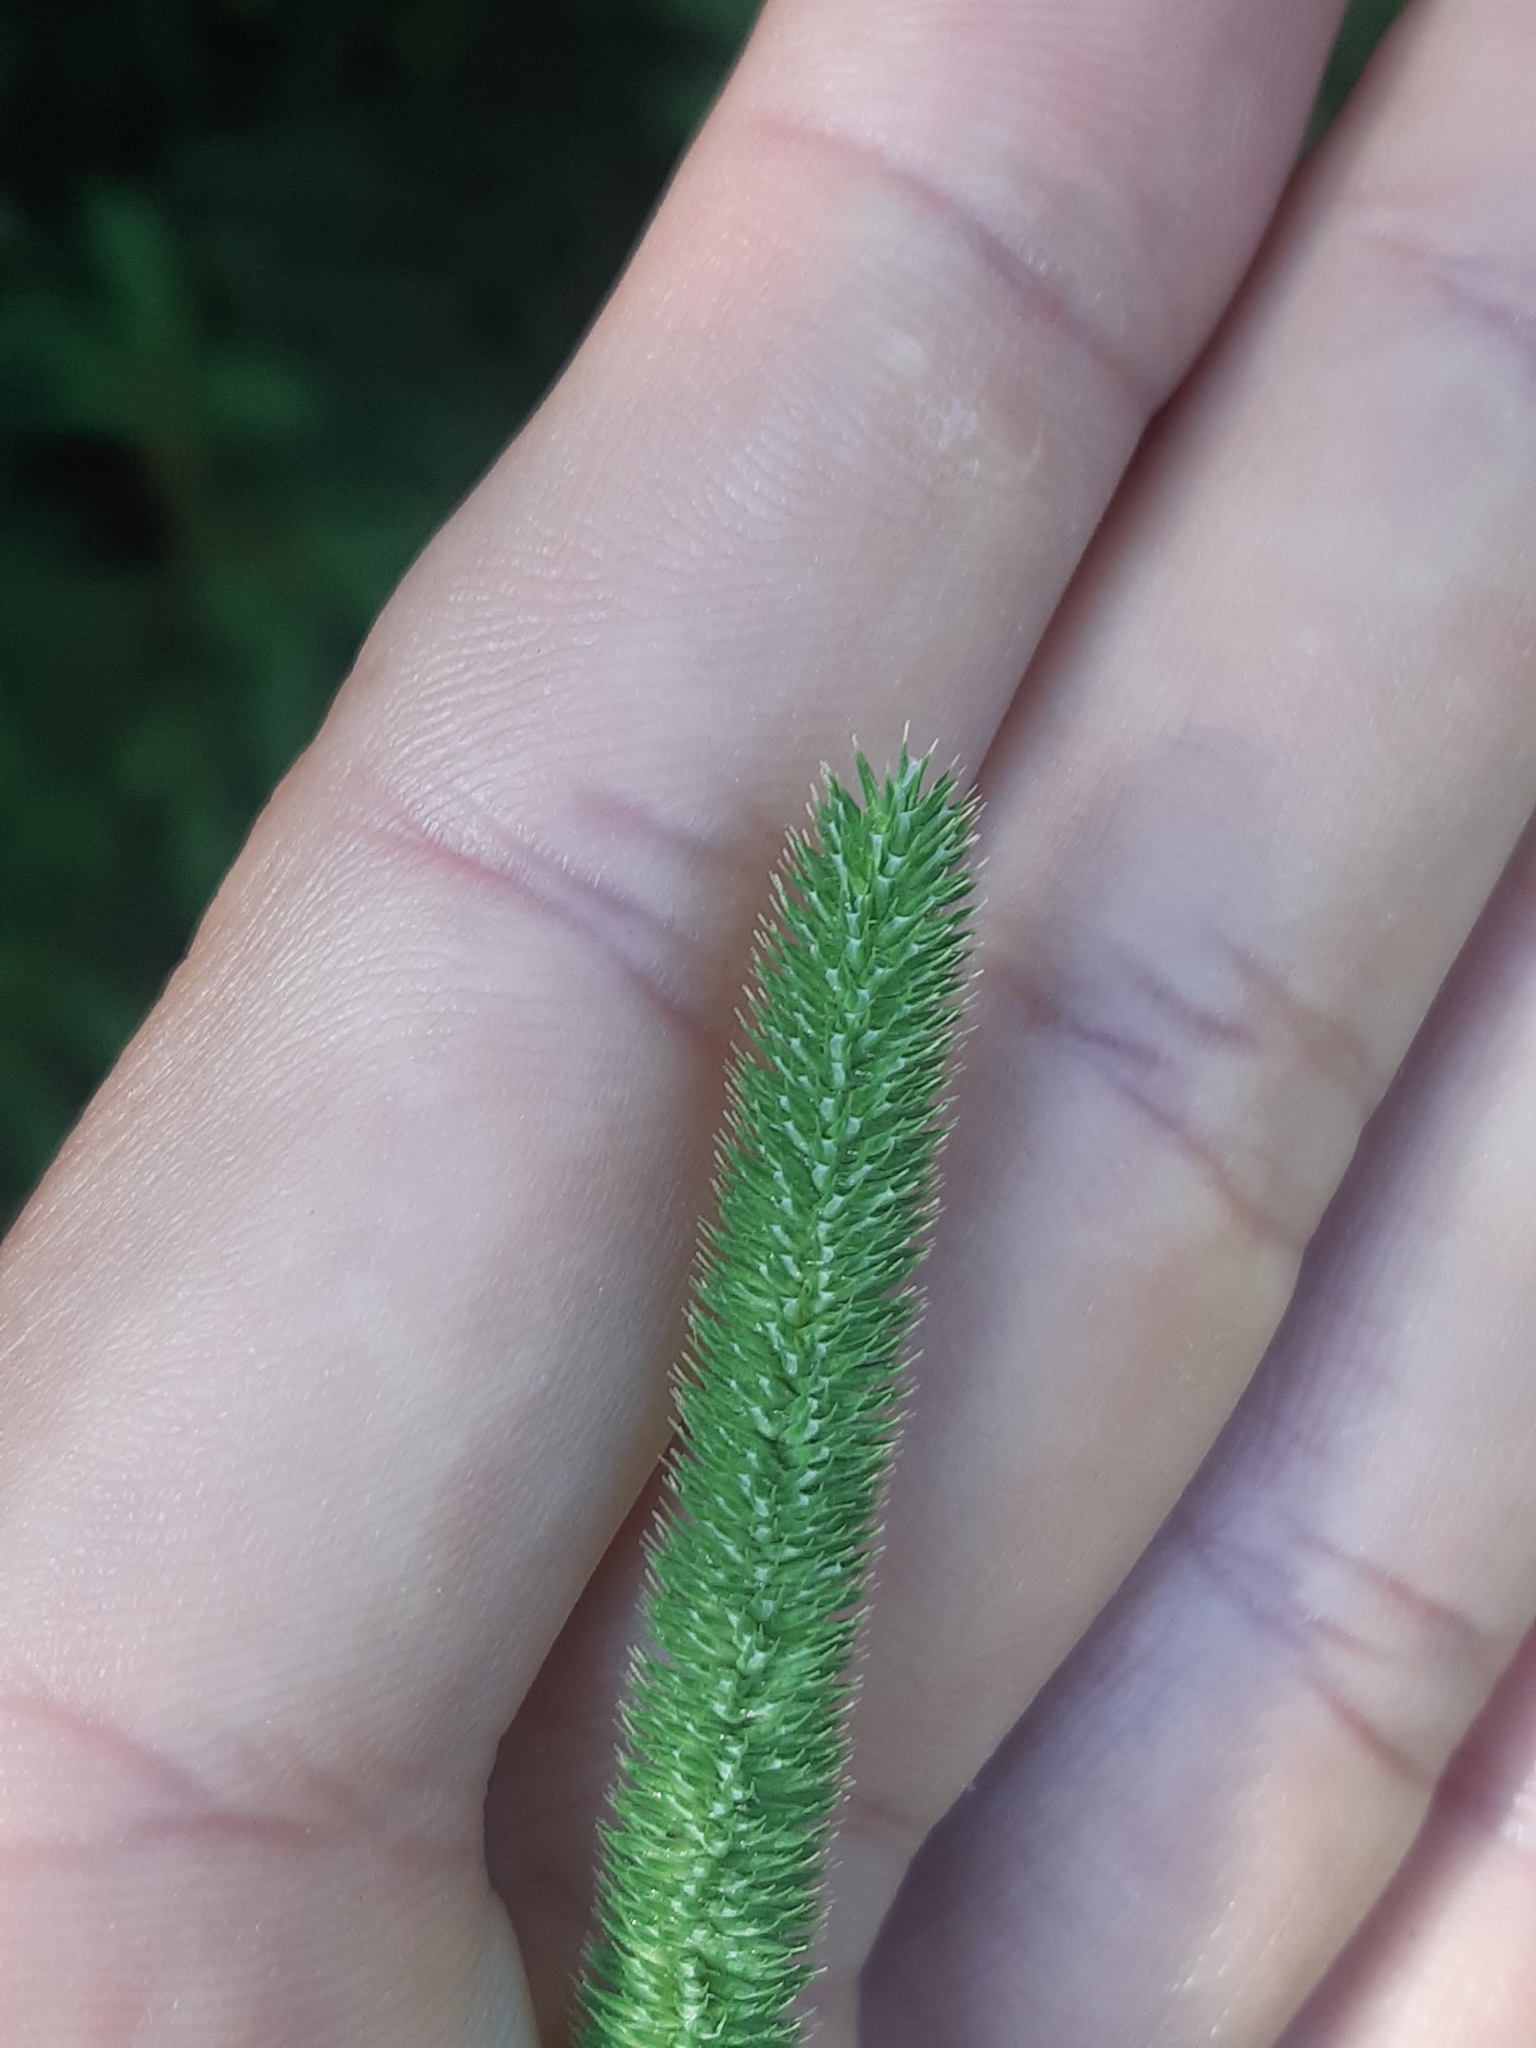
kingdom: Plantae
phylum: Tracheophyta
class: Liliopsida
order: Poales
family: Poaceae
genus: Phleum
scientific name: Phleum pratense
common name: Timothy grass
